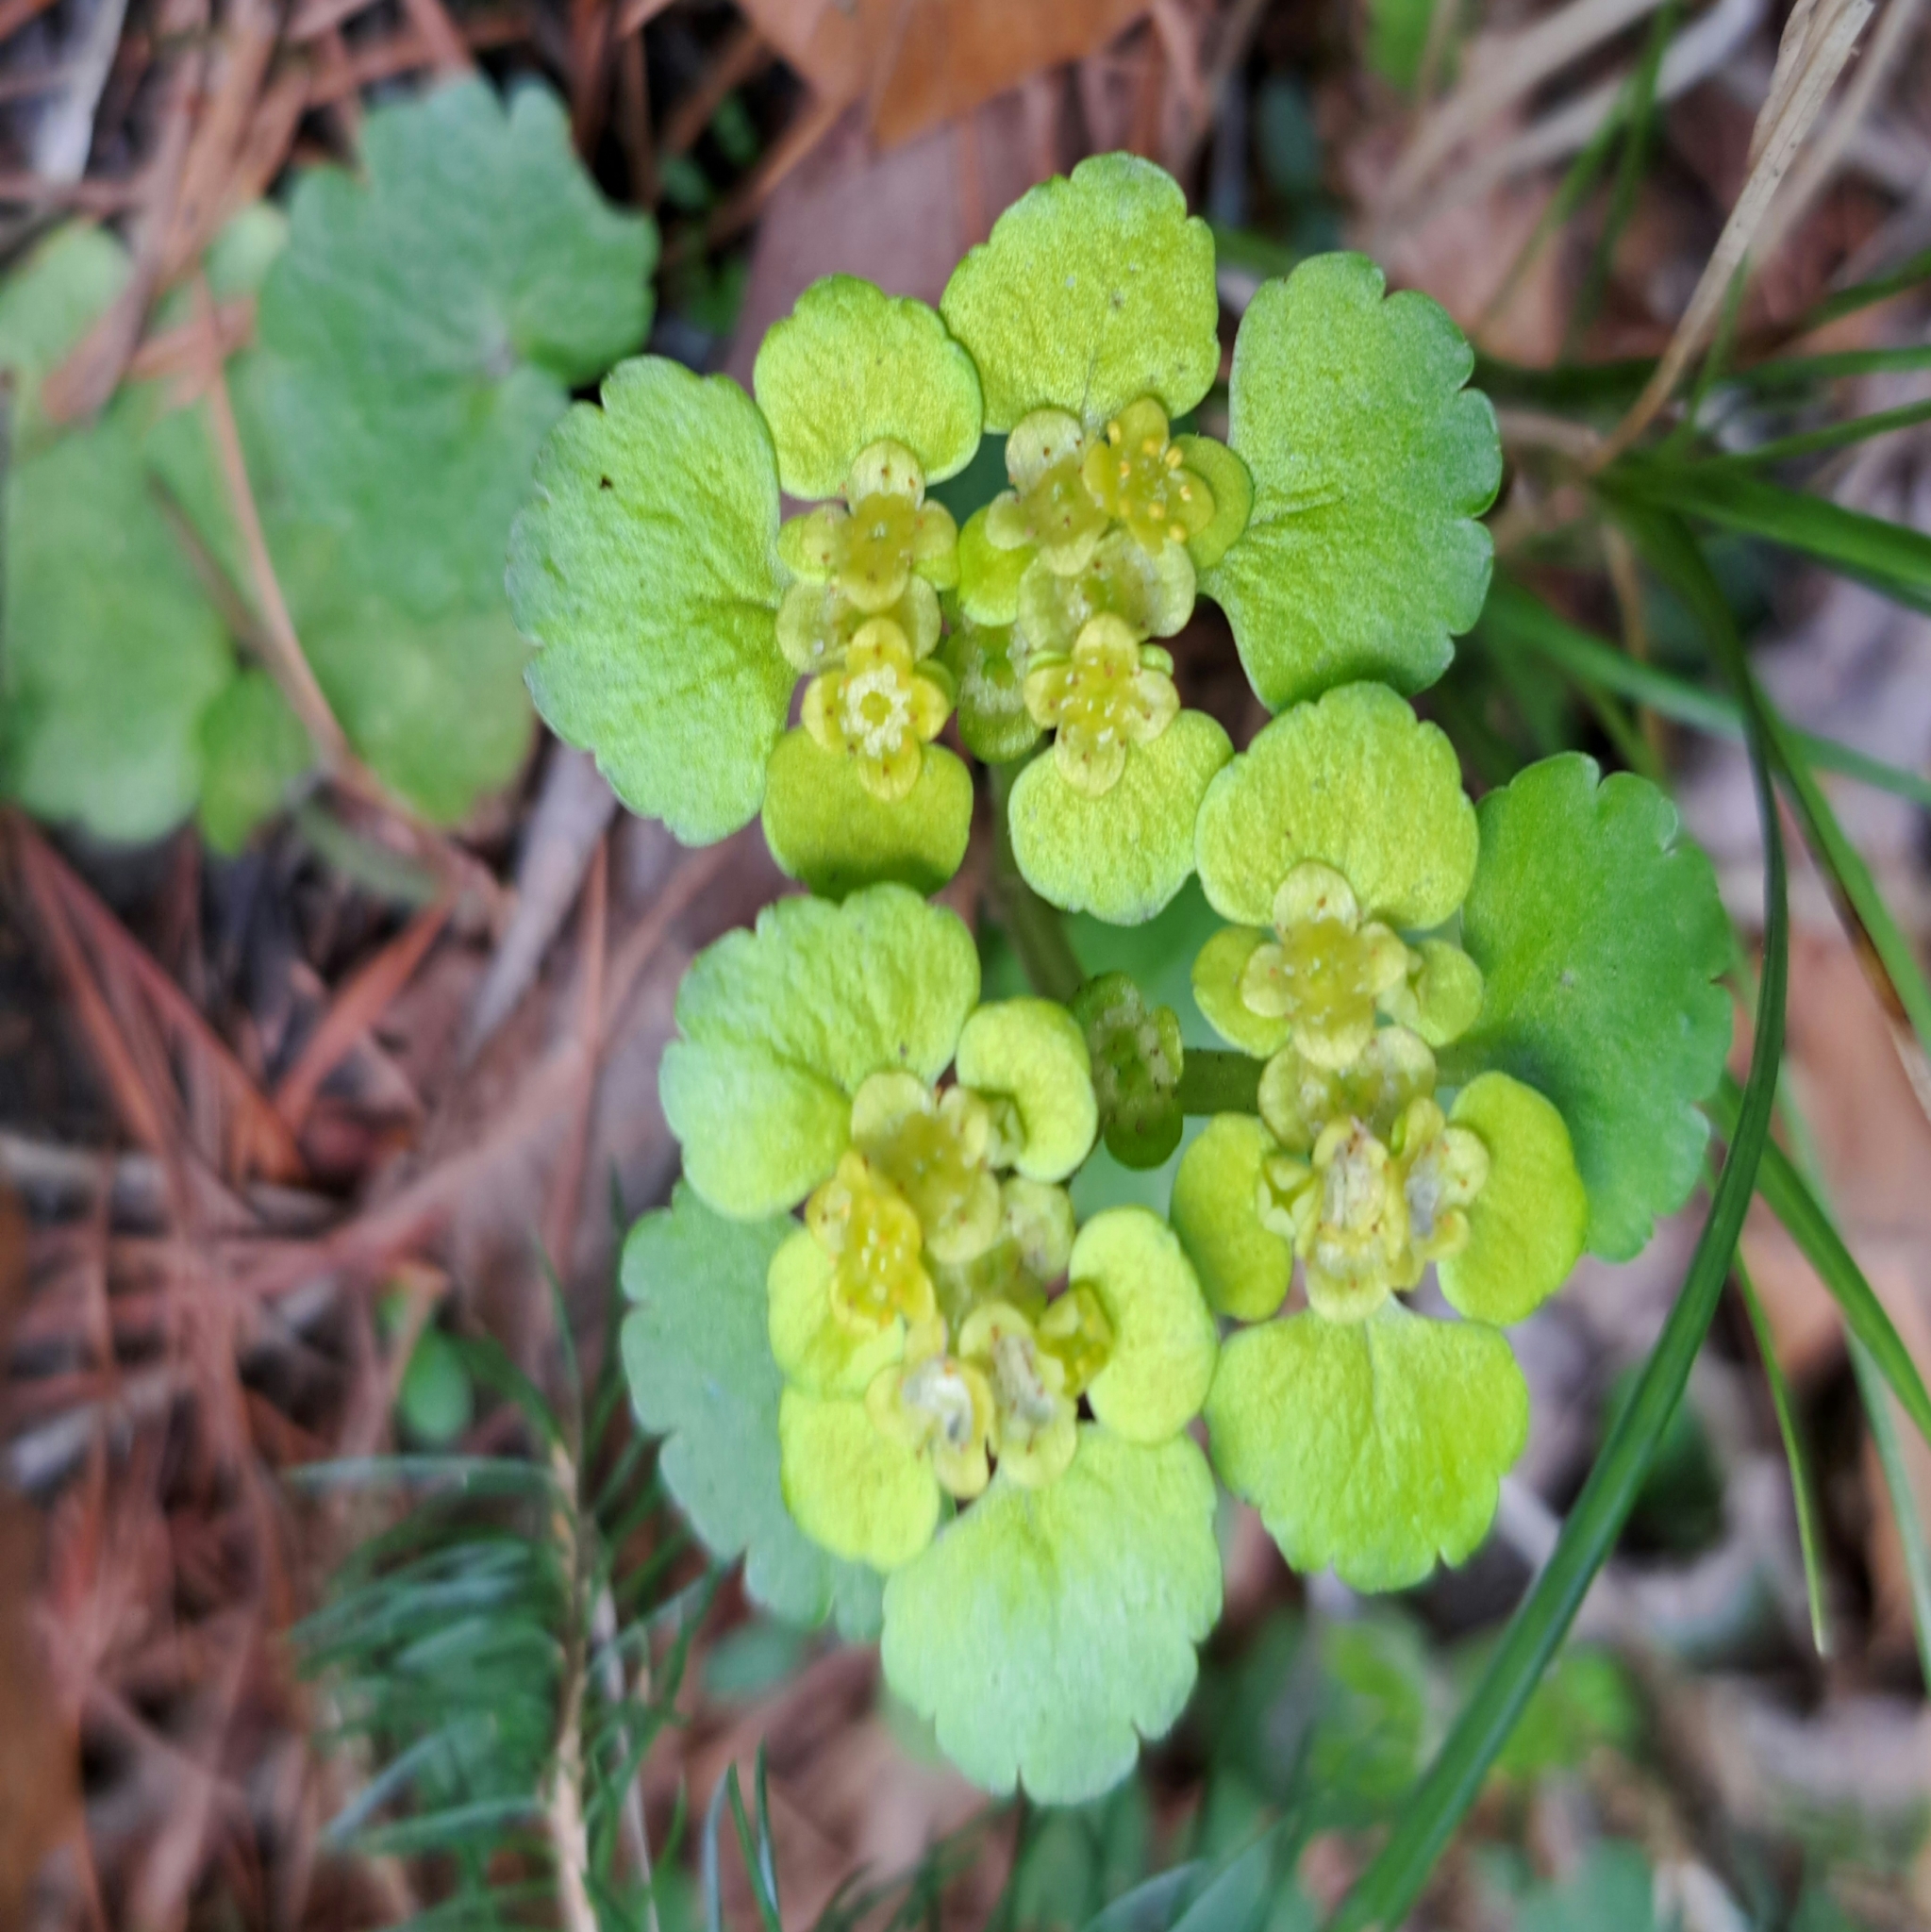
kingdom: Plantae
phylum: Tracheophyta
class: Magnoliopsida
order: Saxifragales
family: Saxifragaceae
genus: Chrysosplenium
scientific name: Chrysosplenium alternifolium
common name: Alternate-leaved golden-saxifrage
